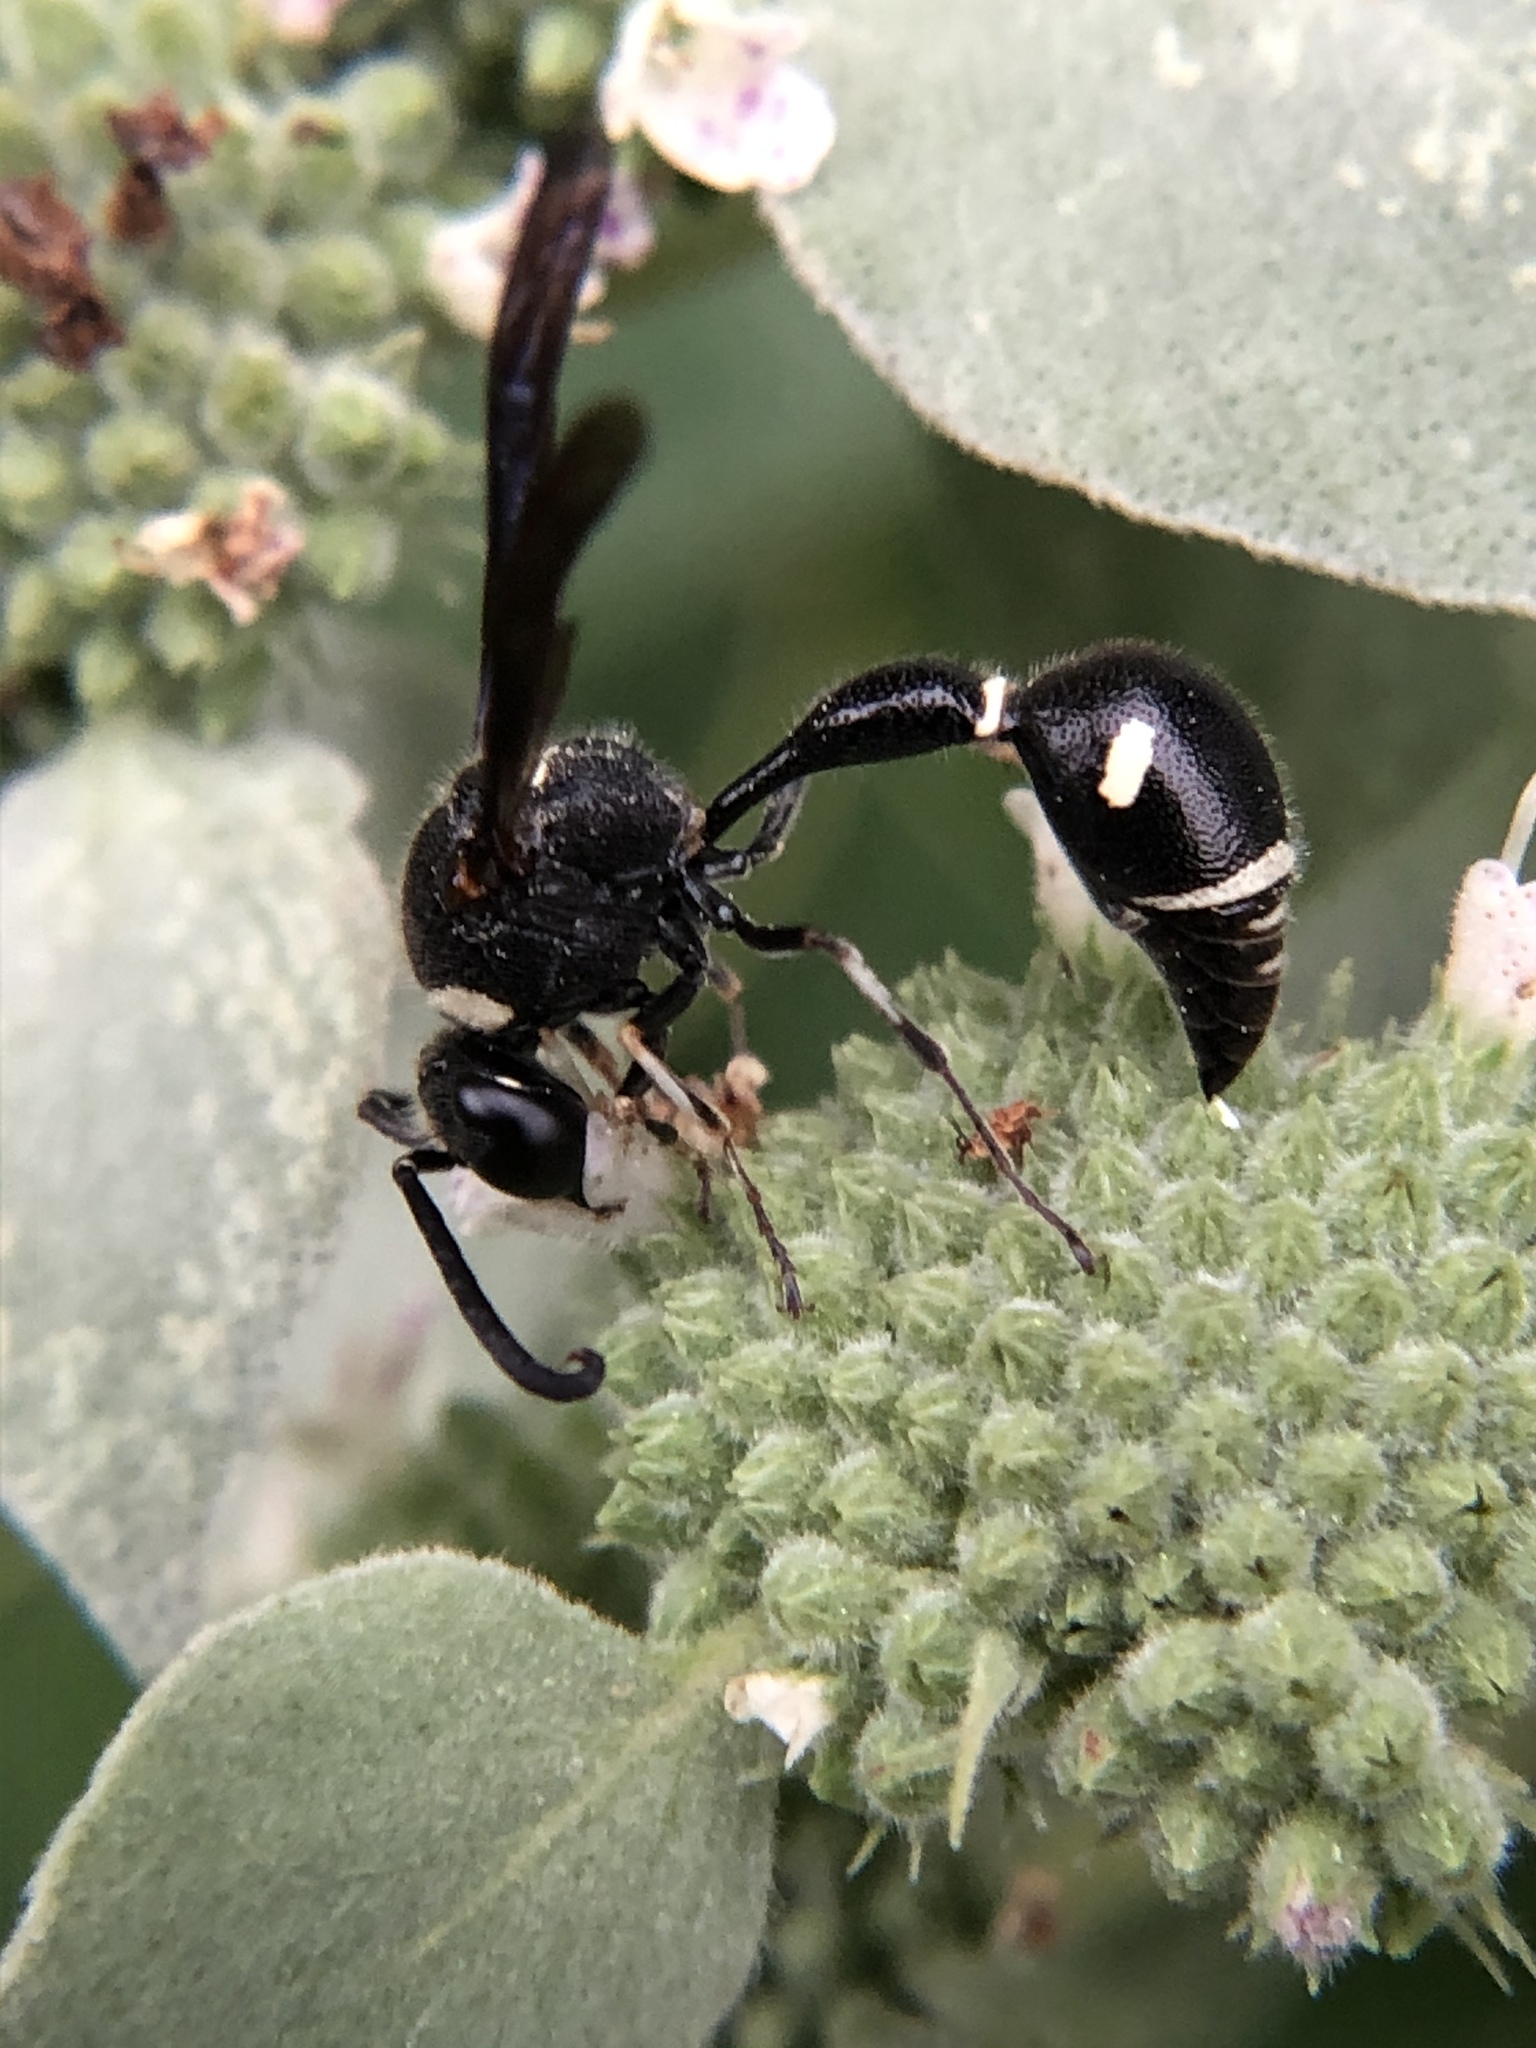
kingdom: Animalia
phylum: Arthropoda
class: Insecta
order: Hymenoptera
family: Vespidae
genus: Eumenes
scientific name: Eumenes fraternus
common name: Fraternal potter wasp
